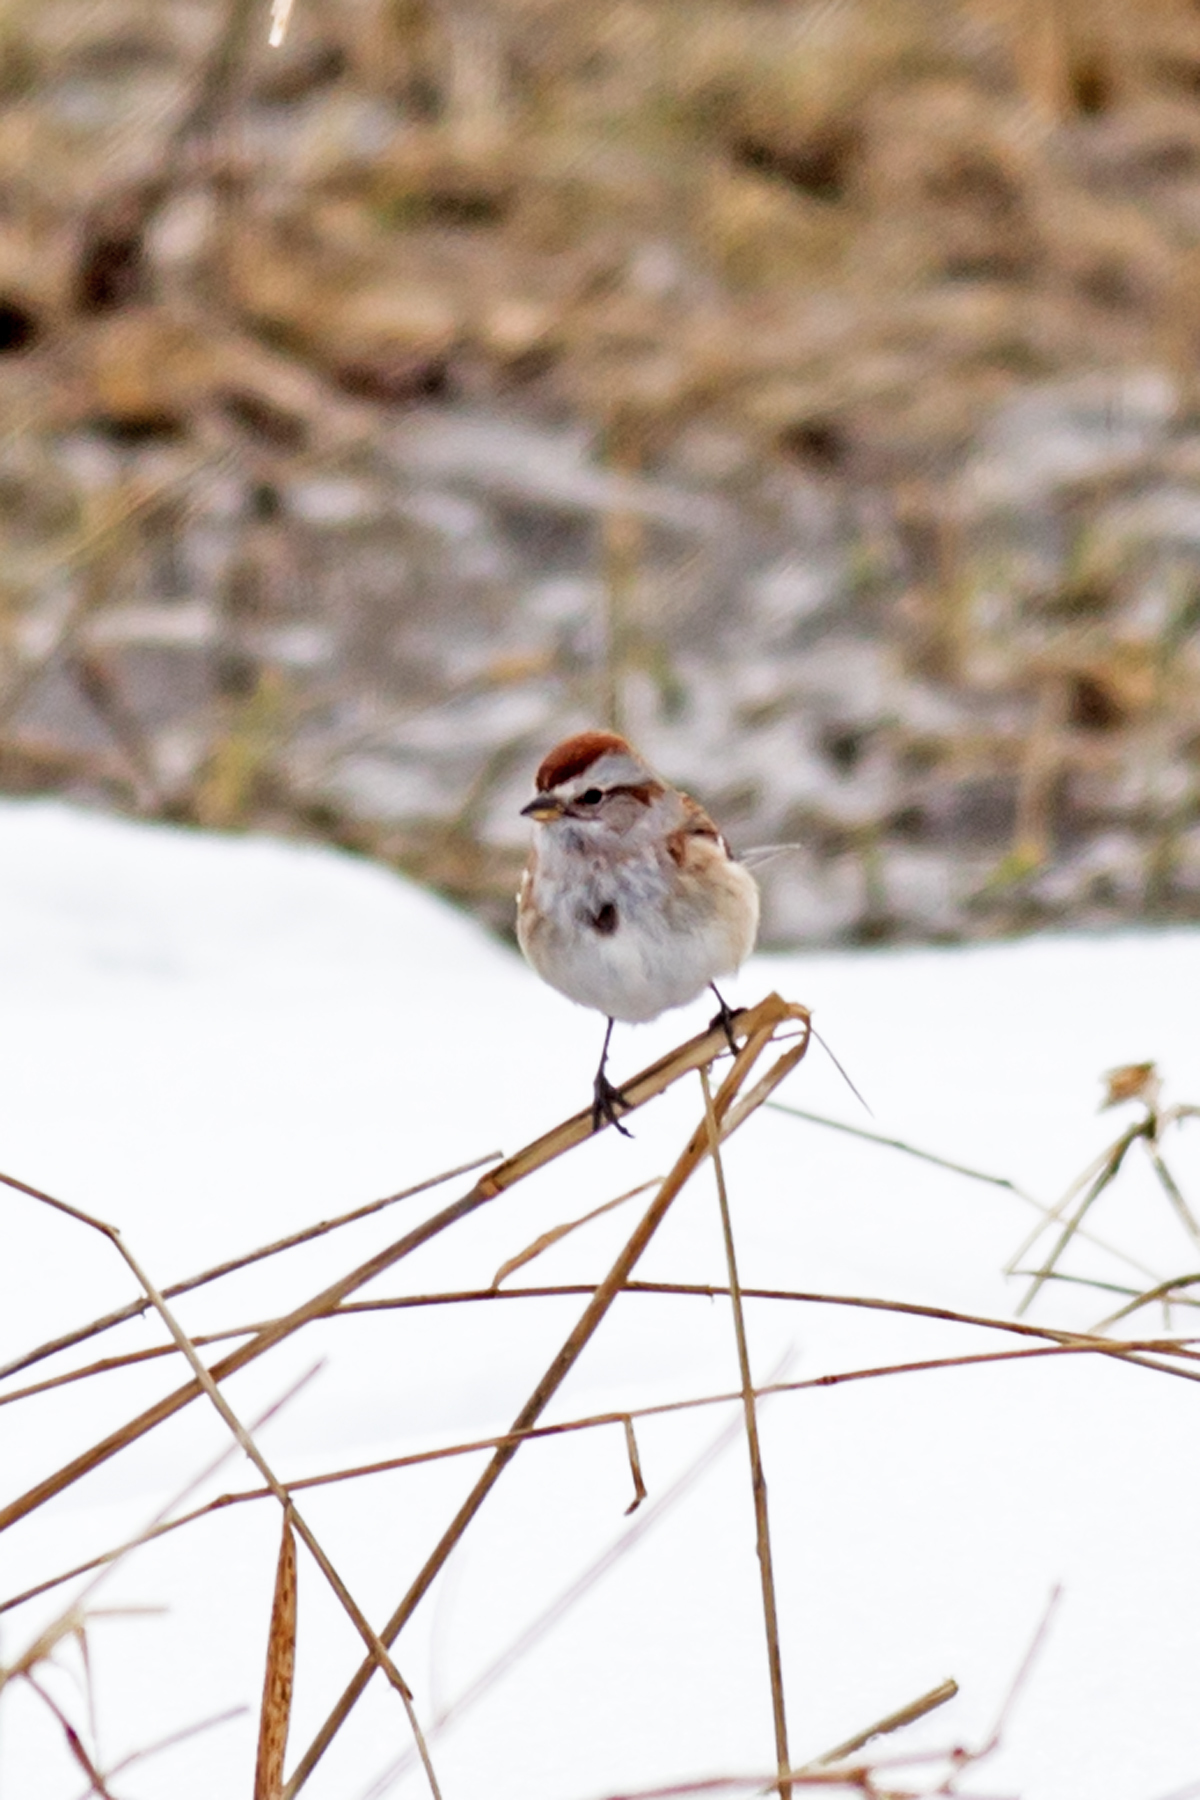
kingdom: Animalia
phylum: Chordata
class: Aves
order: Passeriformes
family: Passerellidae
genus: Spizelloides
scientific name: Spizelloides arborea
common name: American tree sparrow
